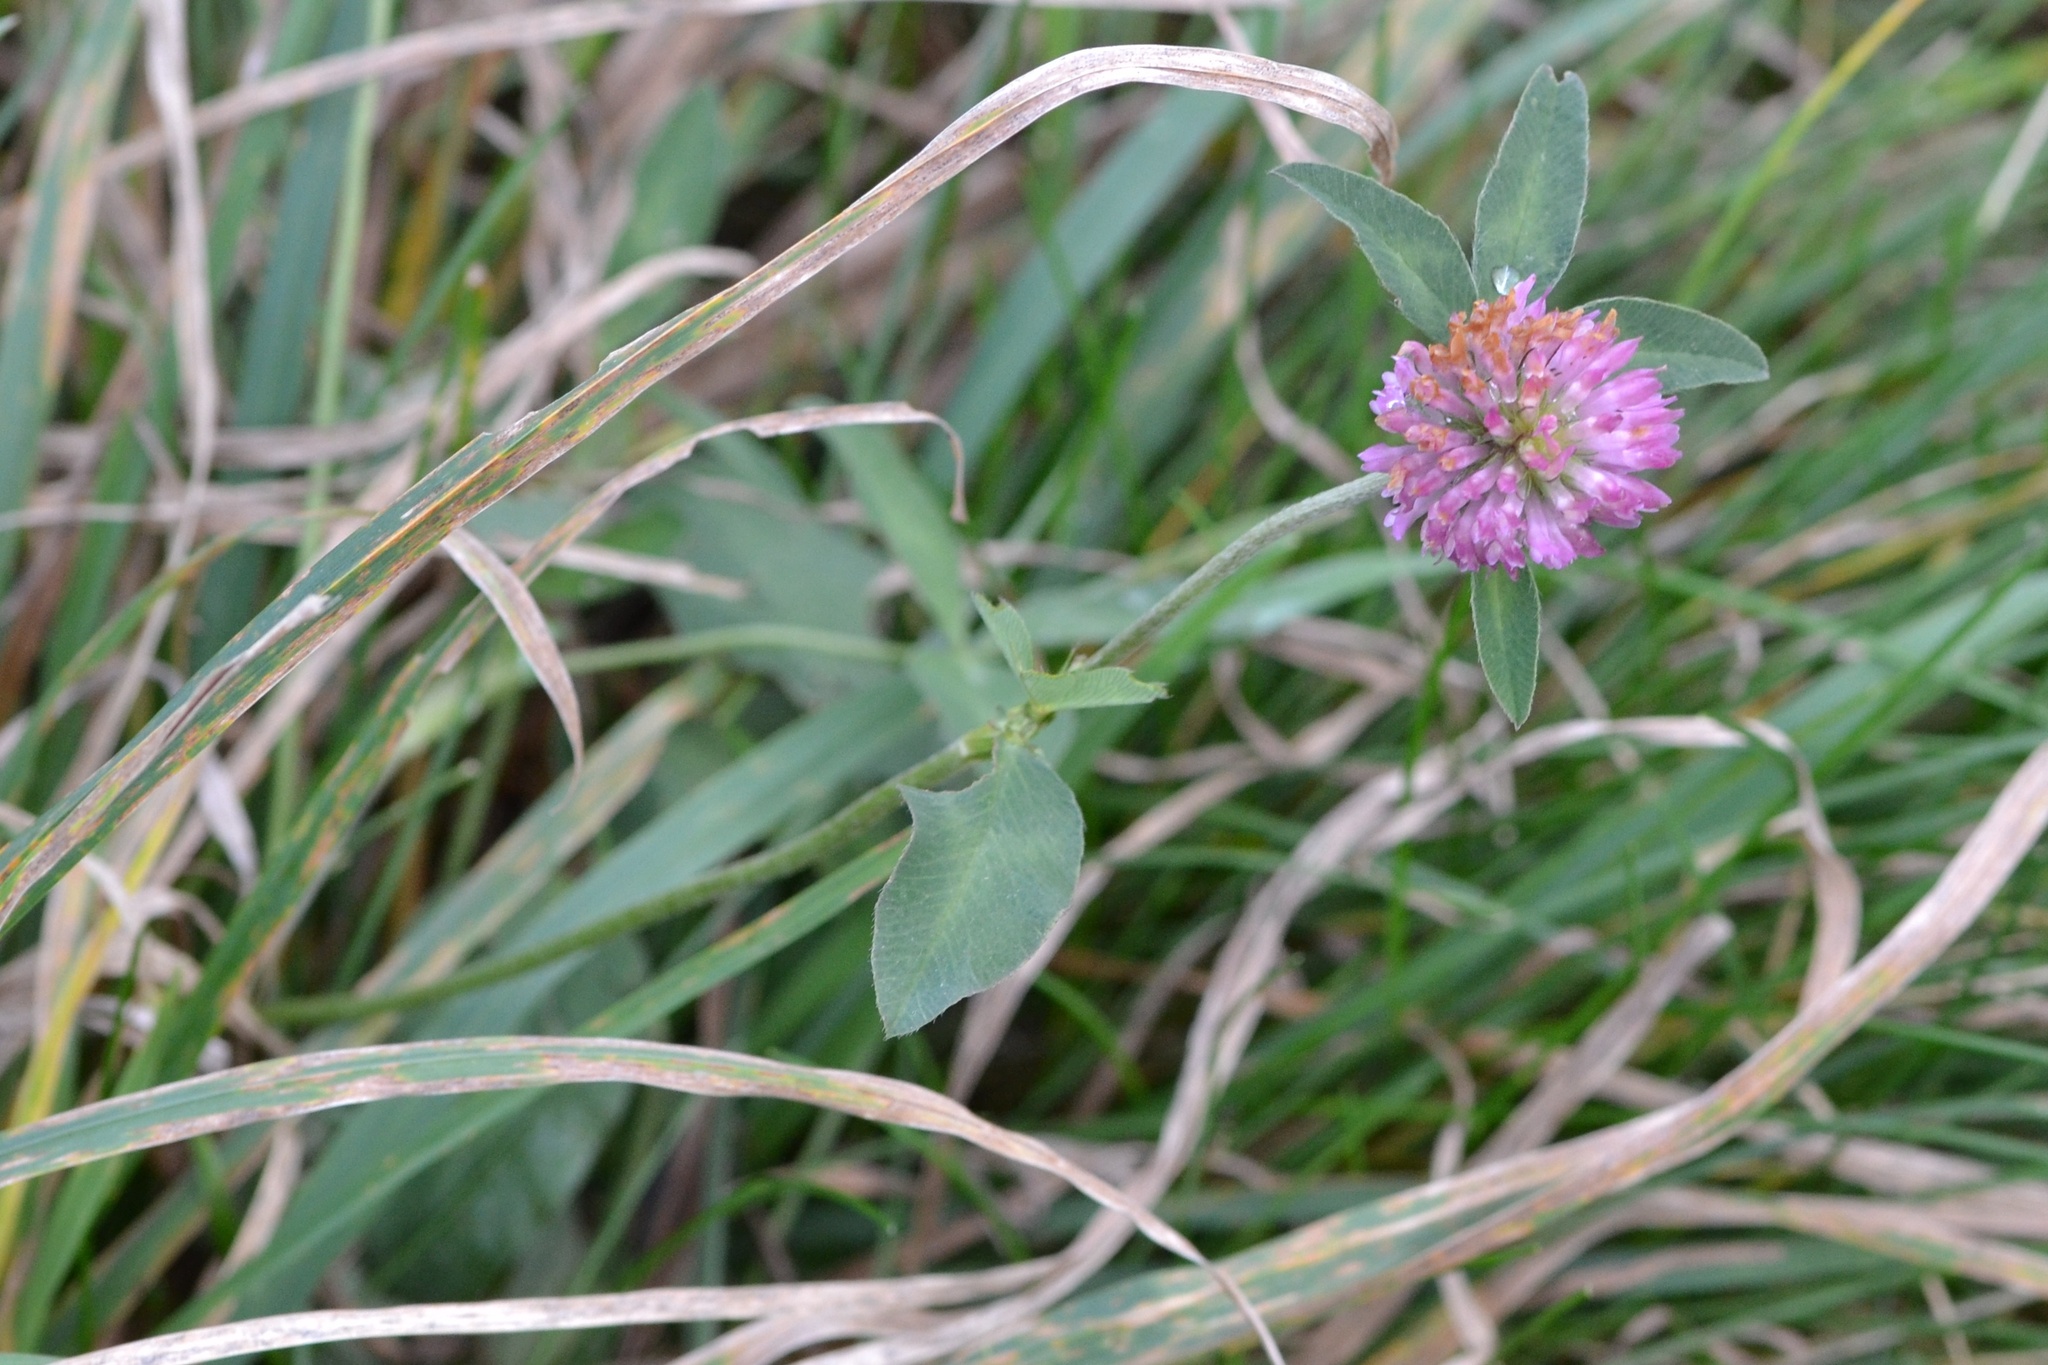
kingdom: Plantae
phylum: Tracheophyta
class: Magnoliopsida
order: Fabales
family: Fabaceae
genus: Trifolium
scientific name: Trifolium pratense
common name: Red clover
